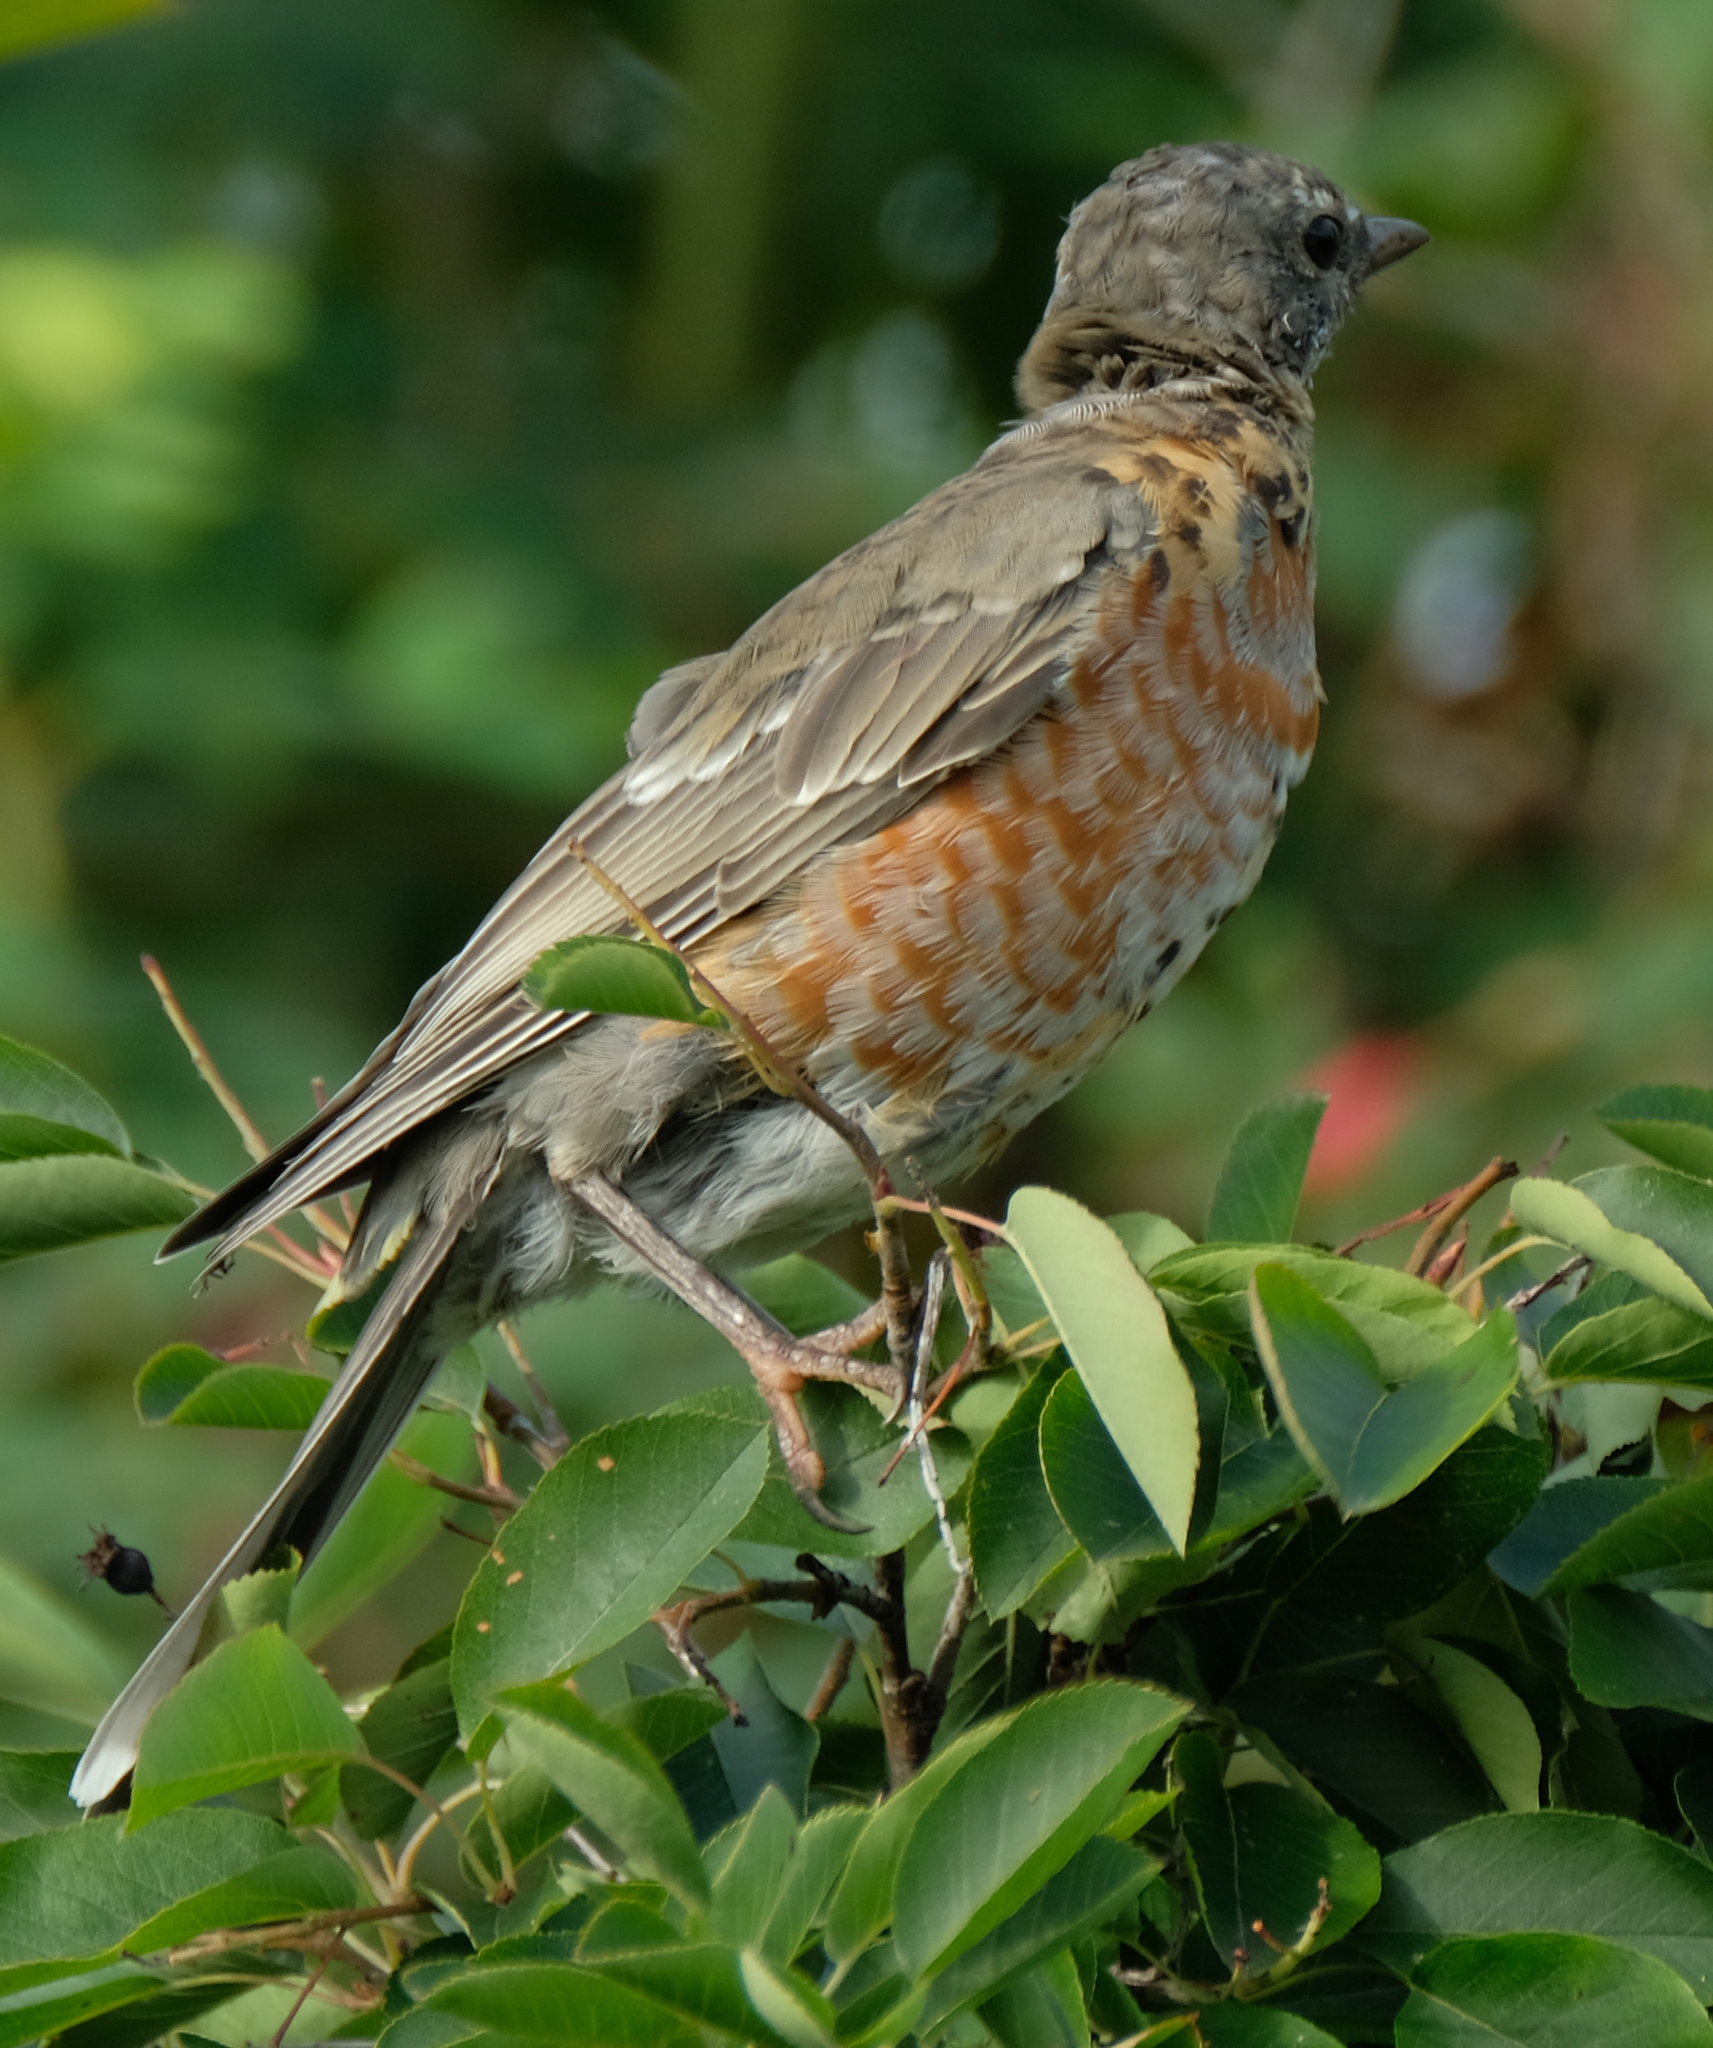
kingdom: Animalia
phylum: Chordata
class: Aves
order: Passeriformes
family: Turdidae
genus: Turdus
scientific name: Turdus migratorius
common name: American robin
